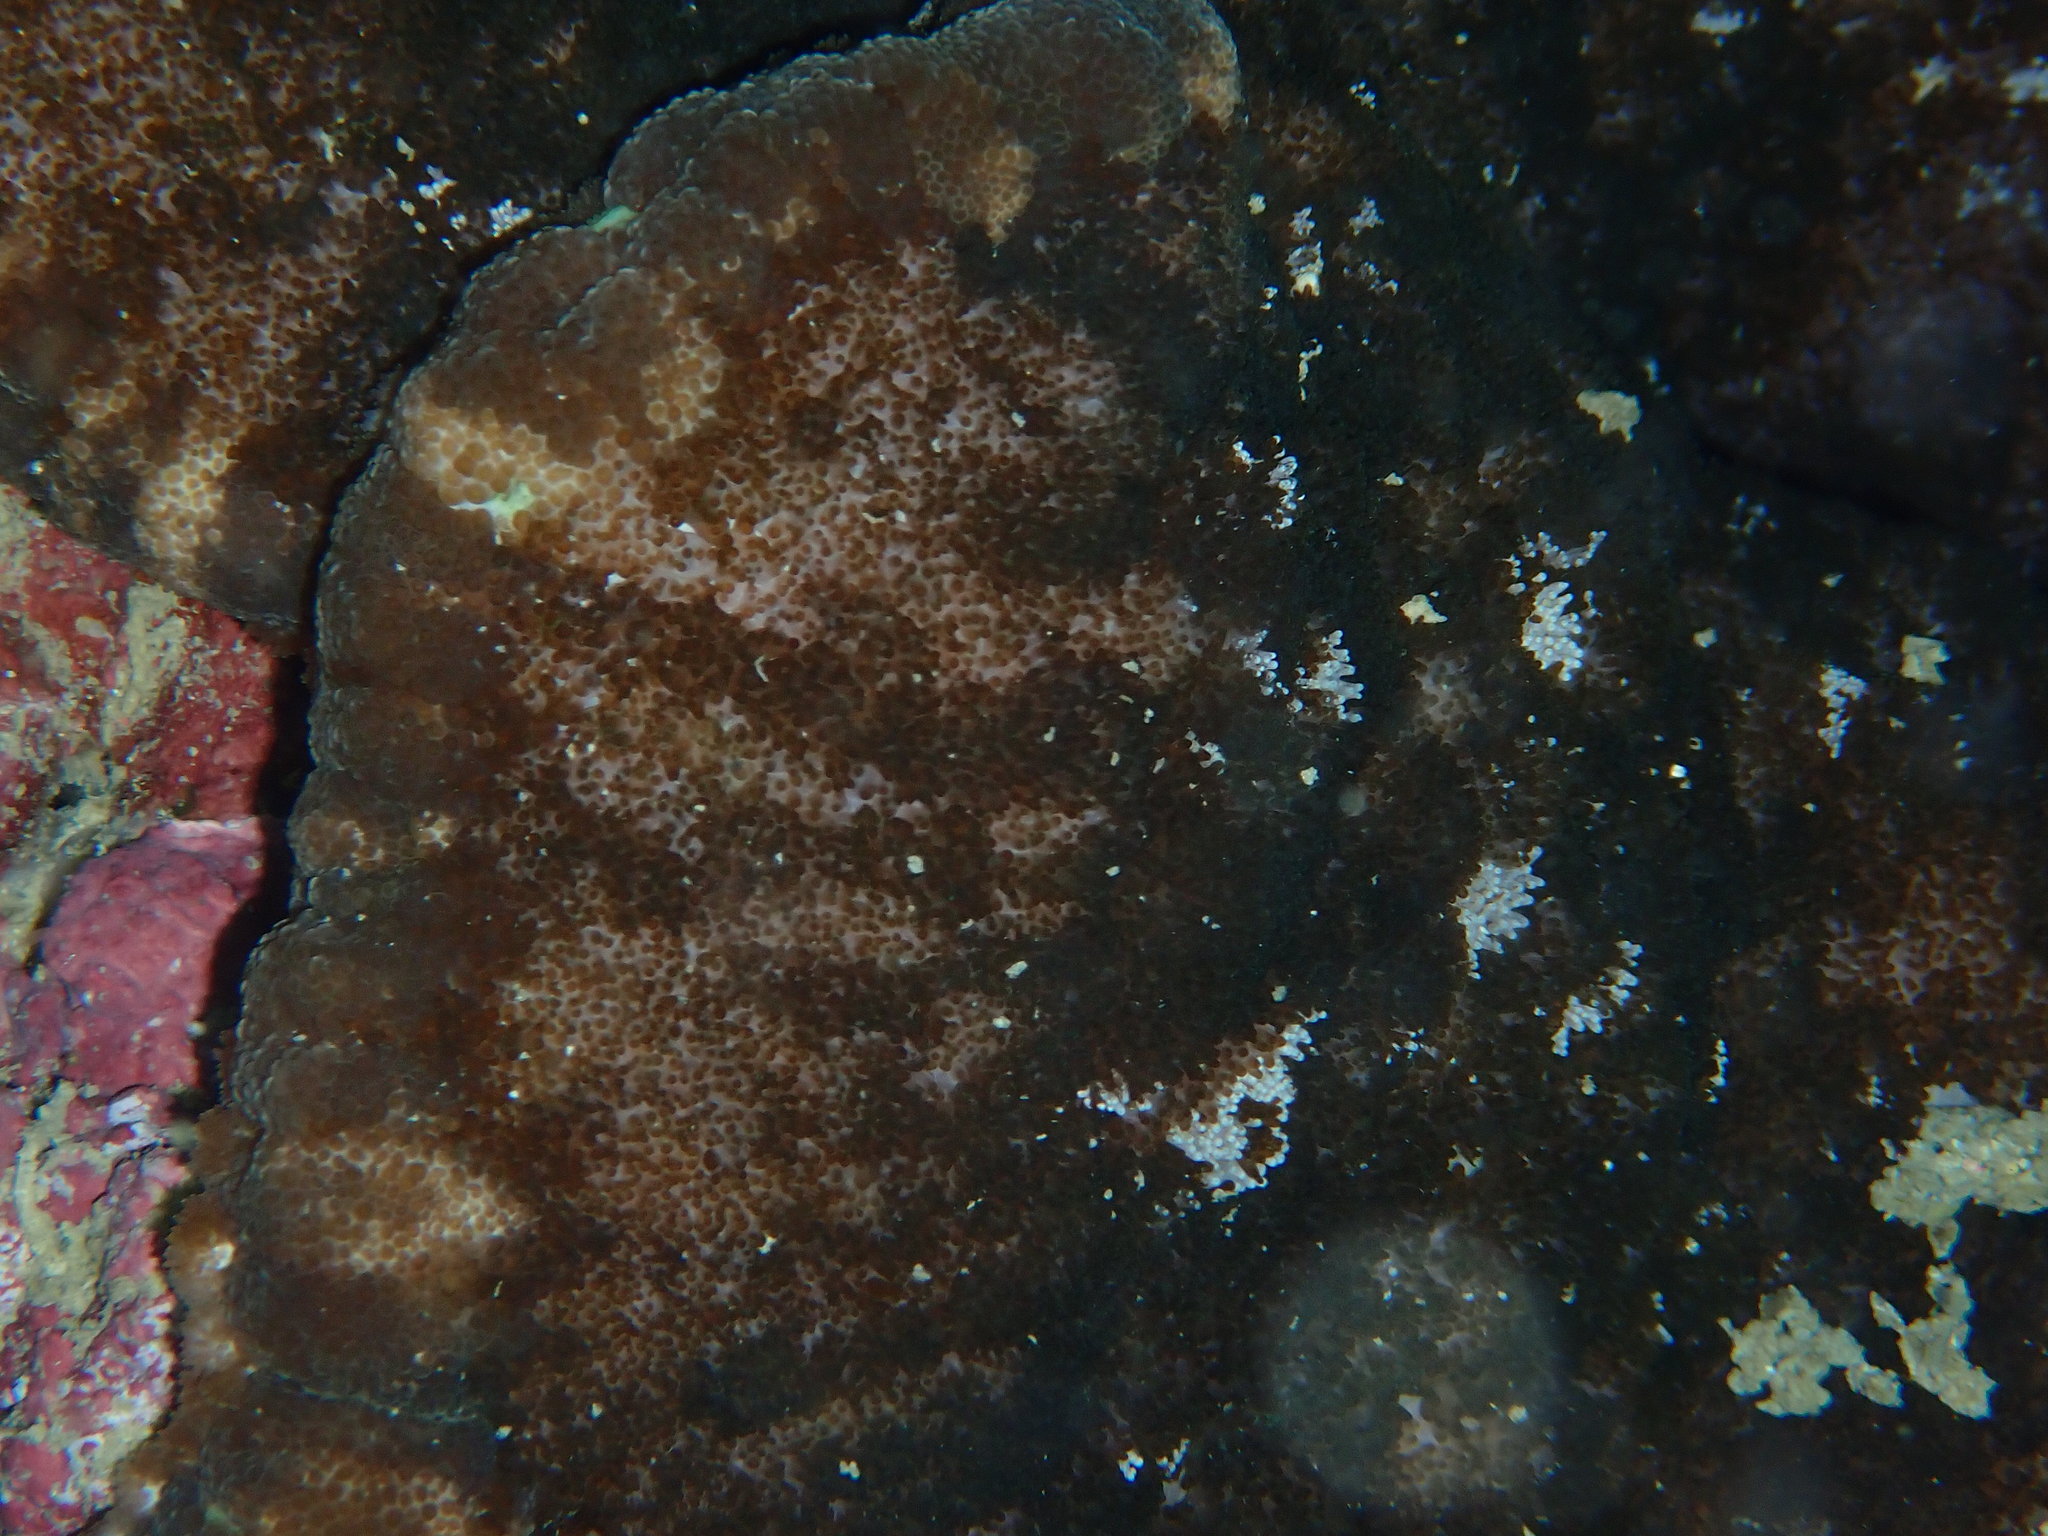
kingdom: Animalia
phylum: Cnidaria
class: Anthozoa
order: Actiniaria
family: Thalassianthidae
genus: Cryptodendrum
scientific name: Cryptodendrum adhaesivum
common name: Adhesive sea anemone
